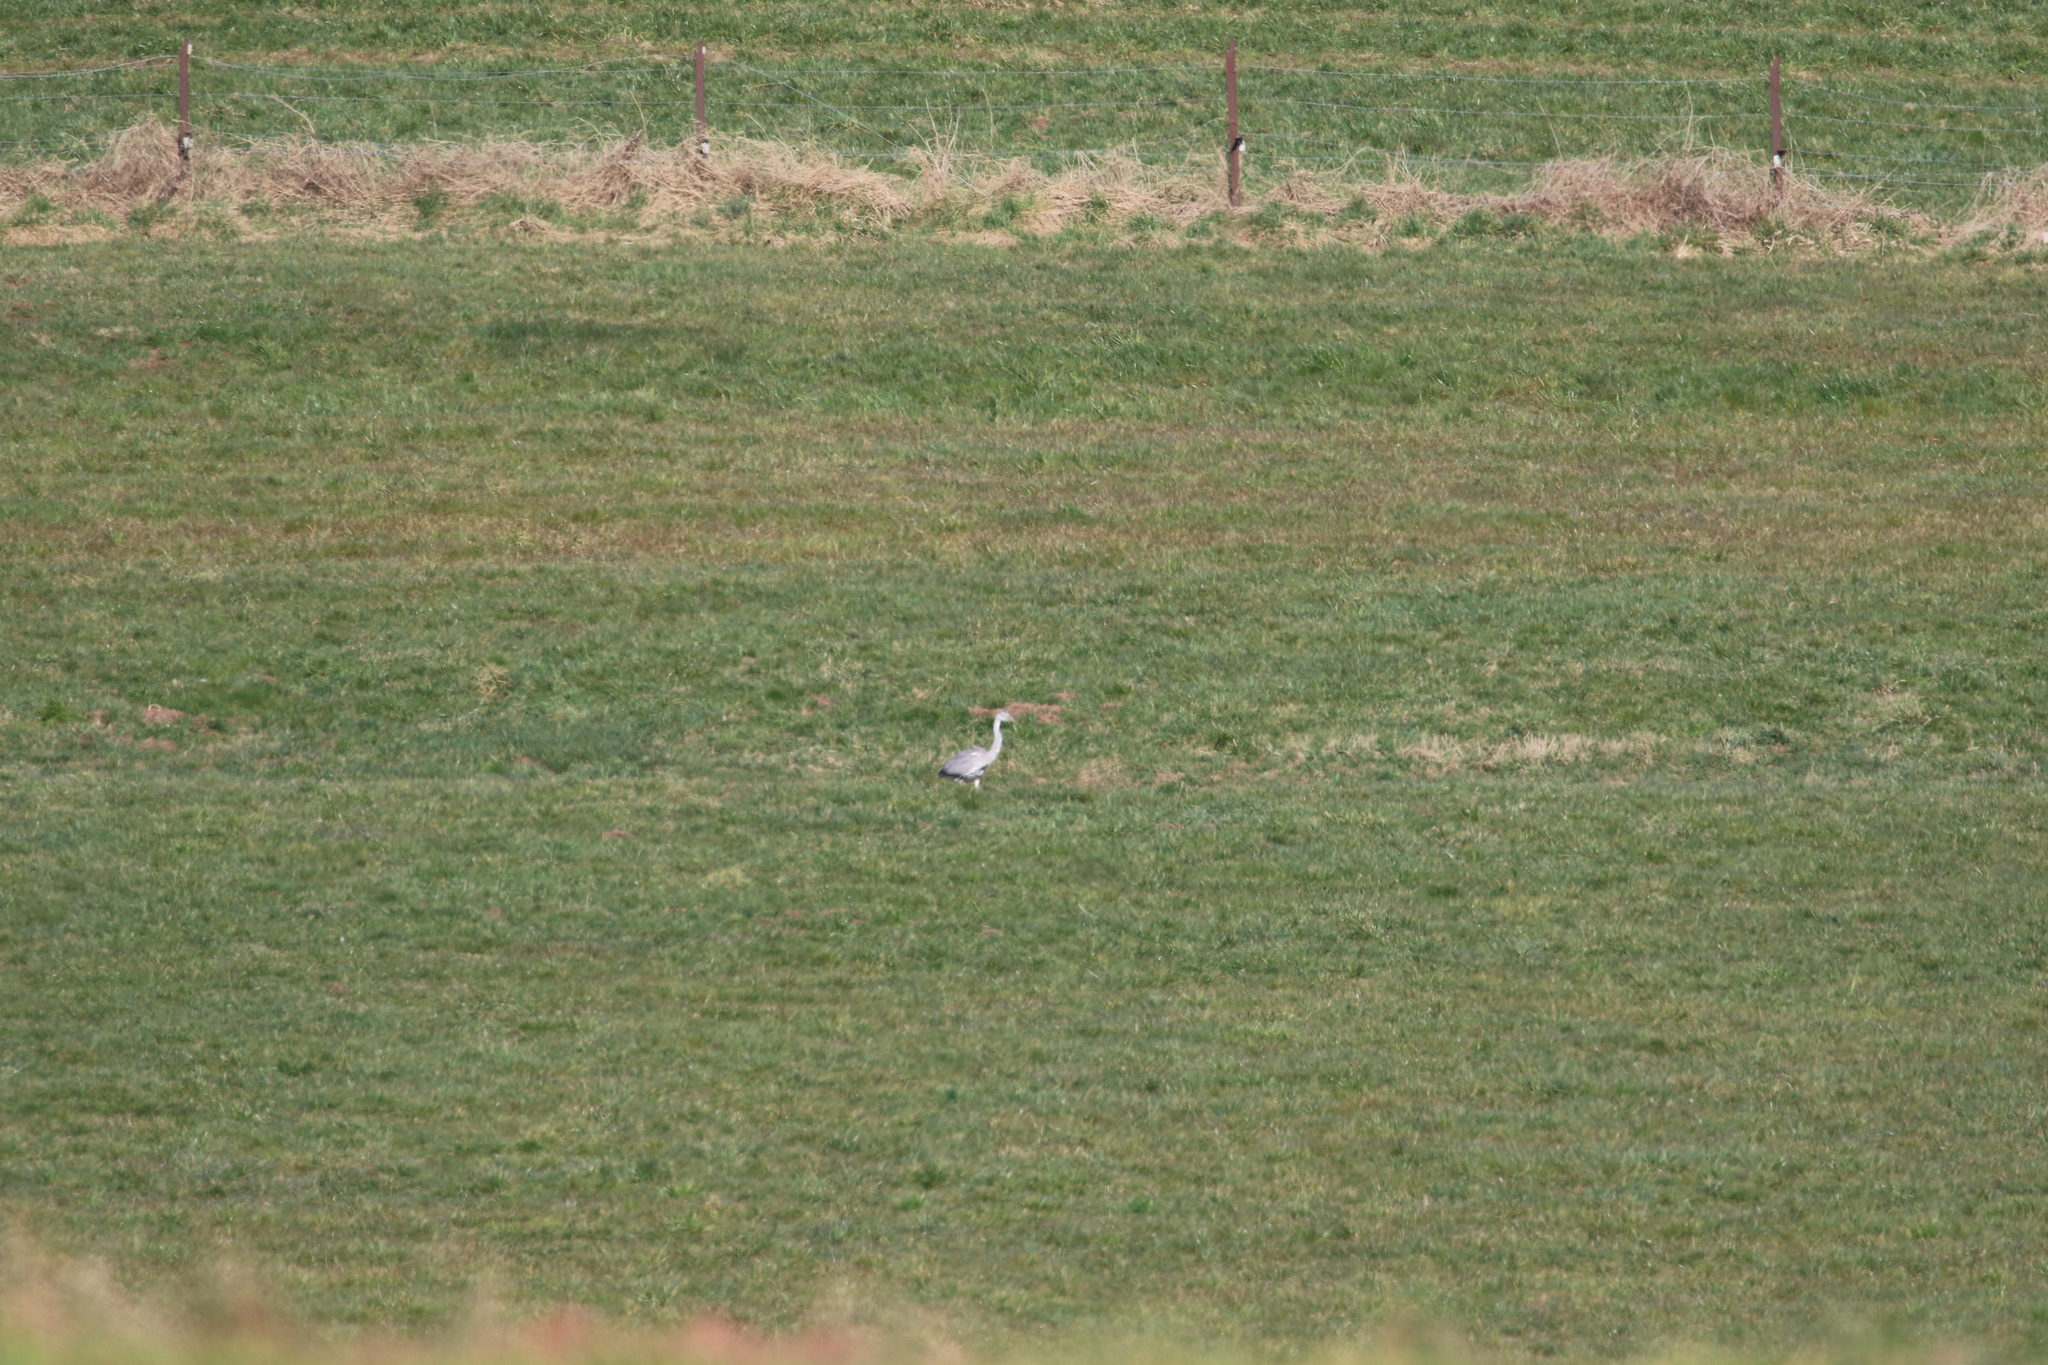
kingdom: Animalia
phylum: Chordata
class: Aves
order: Pelecaniformes
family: Ardeidae
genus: Ardea
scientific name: Ardea cinerea
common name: Grey heron
